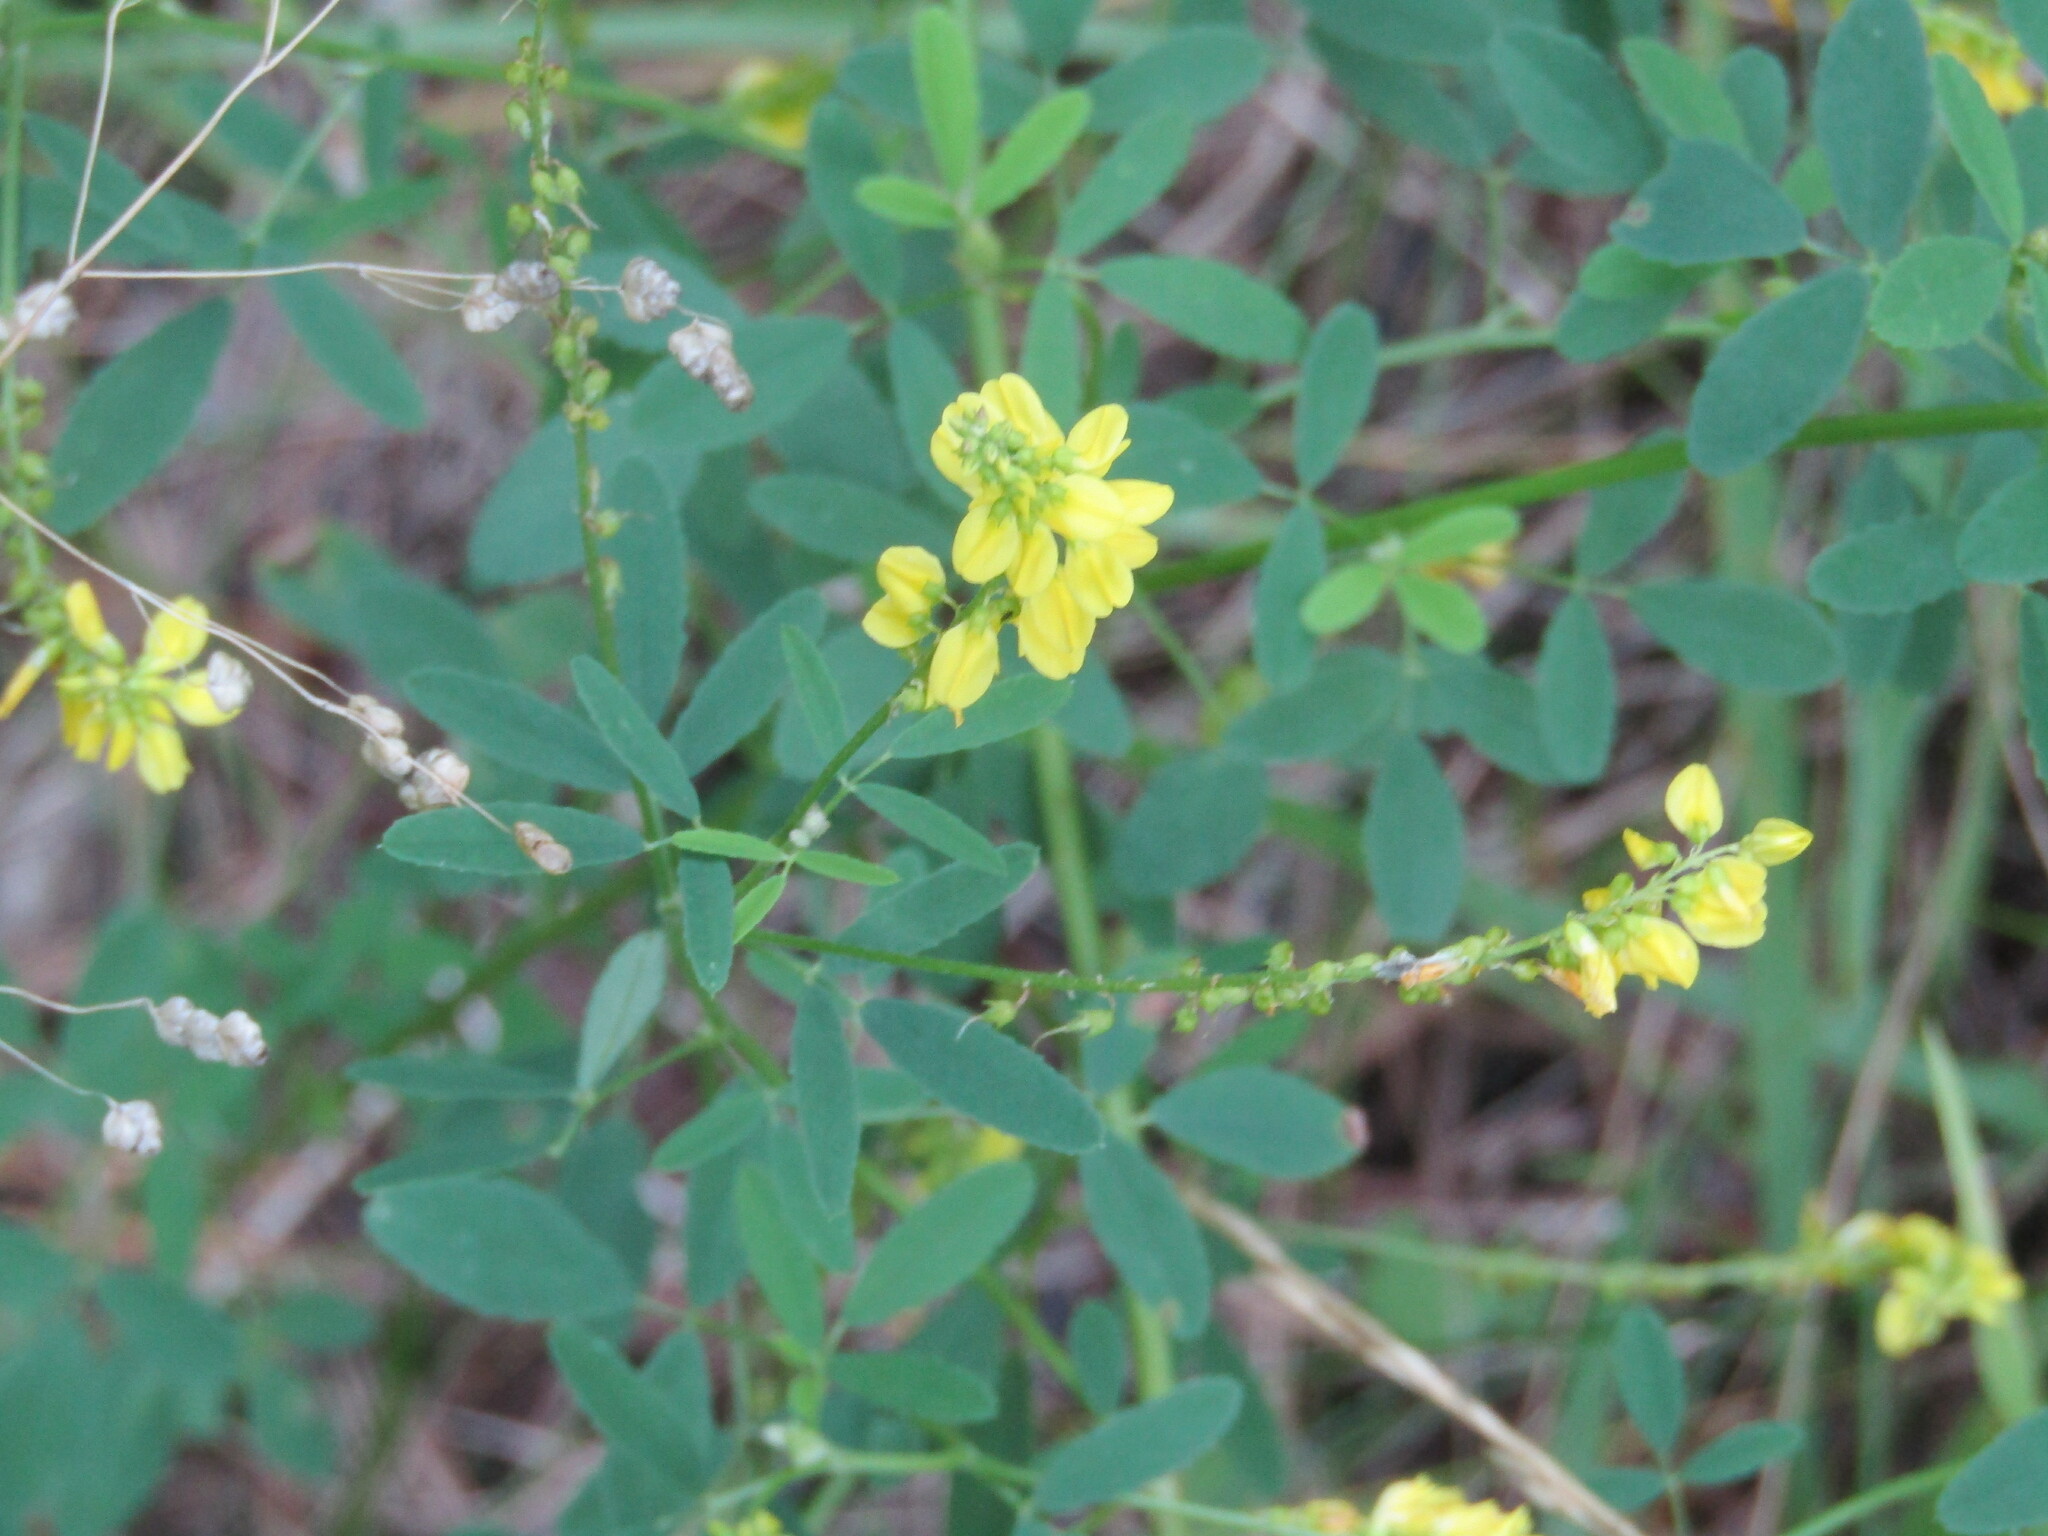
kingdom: Plantae
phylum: Tracheophyta
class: Magnoliopsida
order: Fabales
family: Fabaceae
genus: Melilotus
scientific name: Melilotus officinalis
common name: Sweetclover
